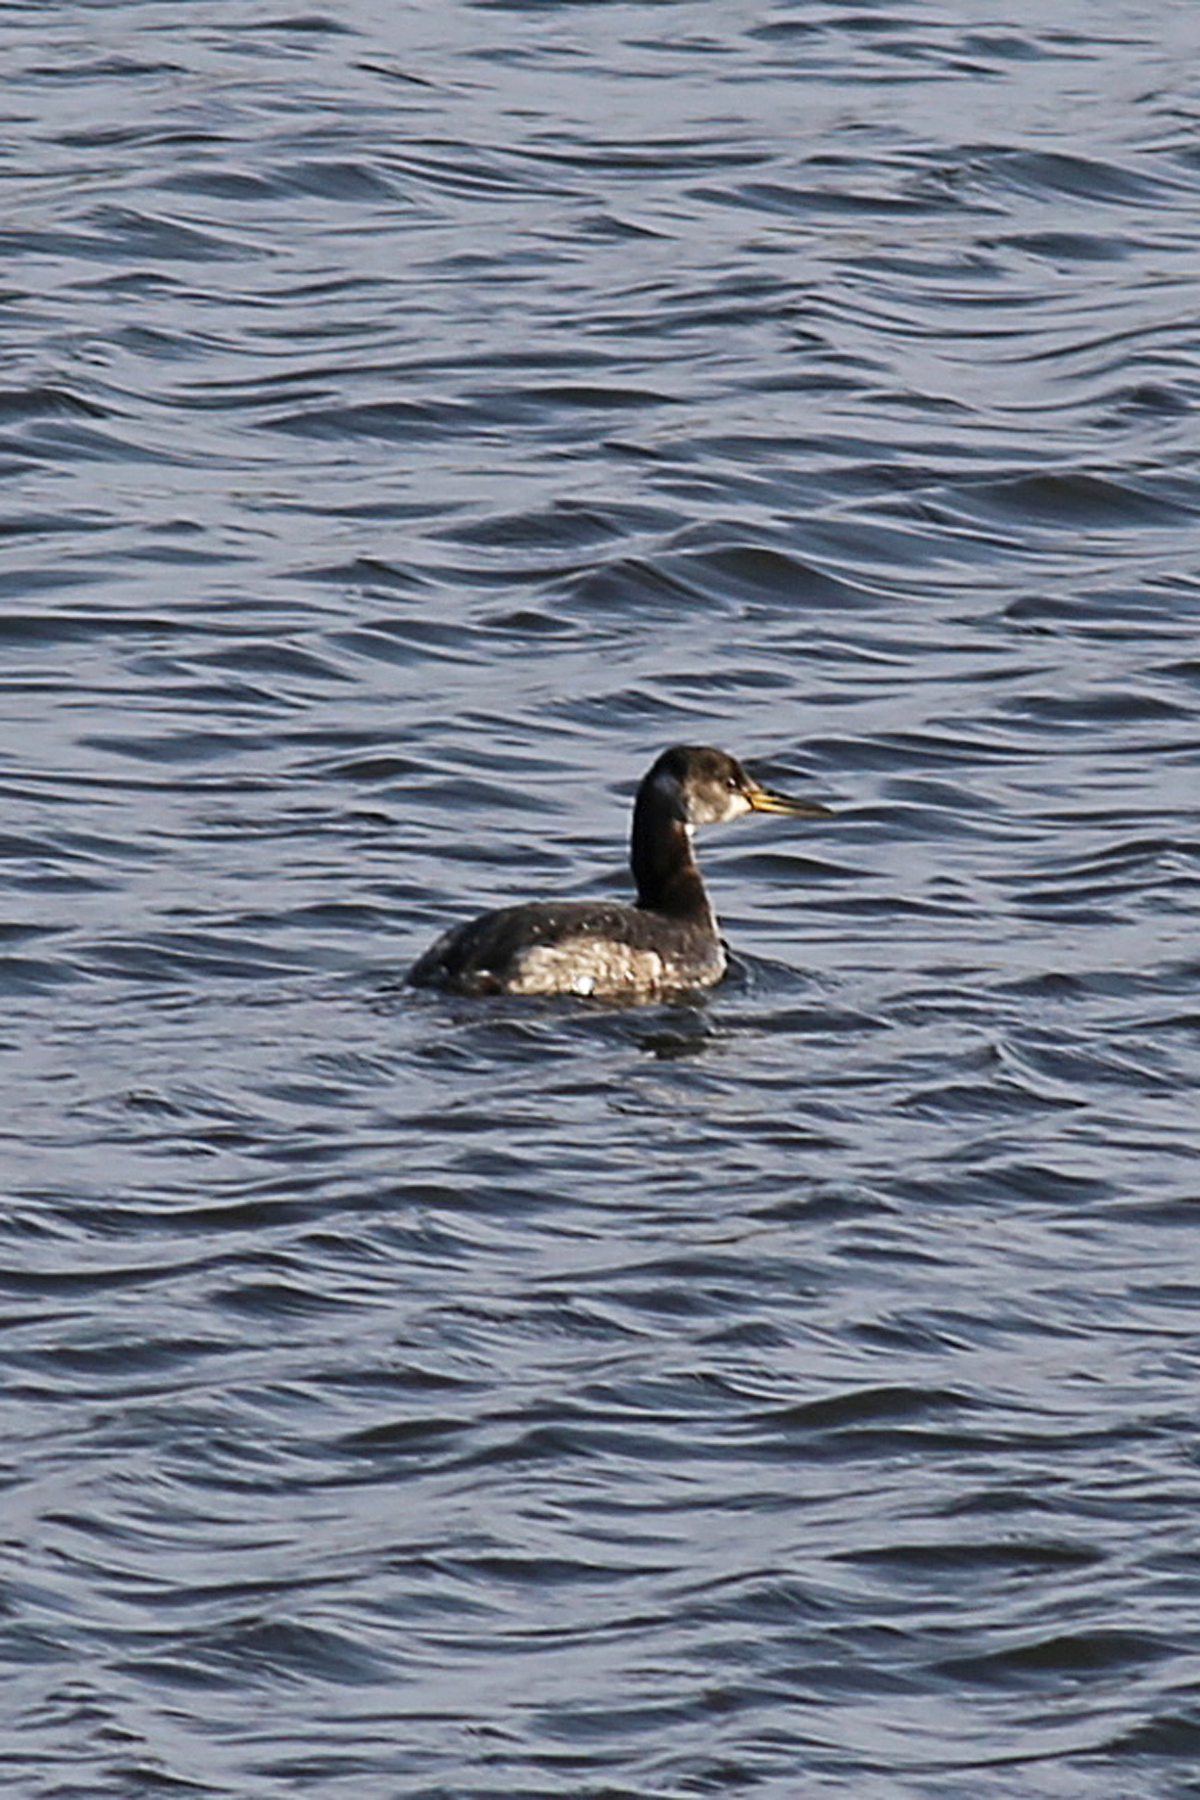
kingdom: Animalia
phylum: Chordata
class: Aves
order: Podicipediformes
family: Podicipedidae
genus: Podiceps
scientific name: Podiceps grisegena
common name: Red-necked grebe
